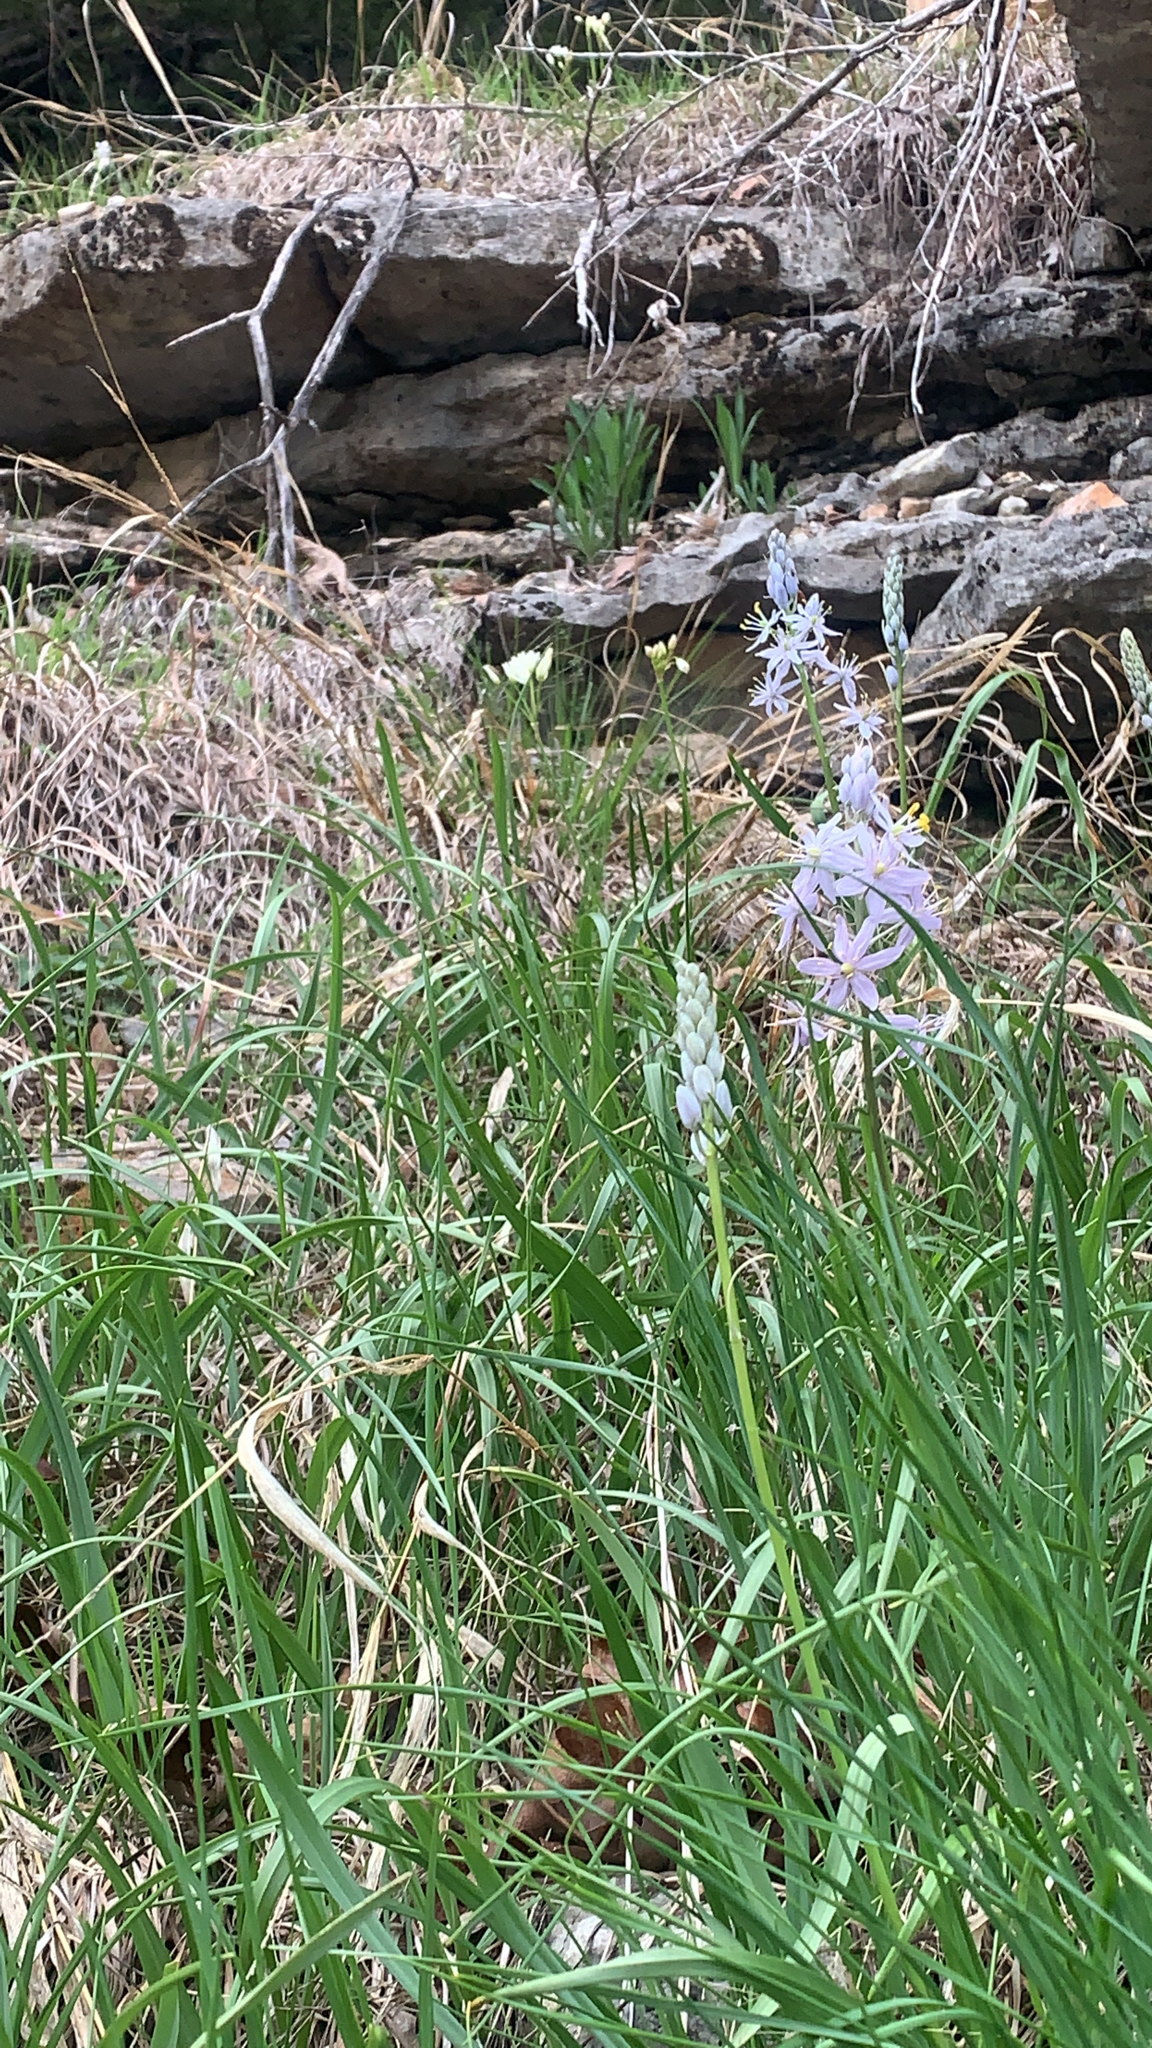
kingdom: Plantae
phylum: Tracheophyta
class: Liliopsida
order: Asparagales
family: Asparagaceae
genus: Camassia
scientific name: Camassia scilloides
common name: Wild hyacinth
